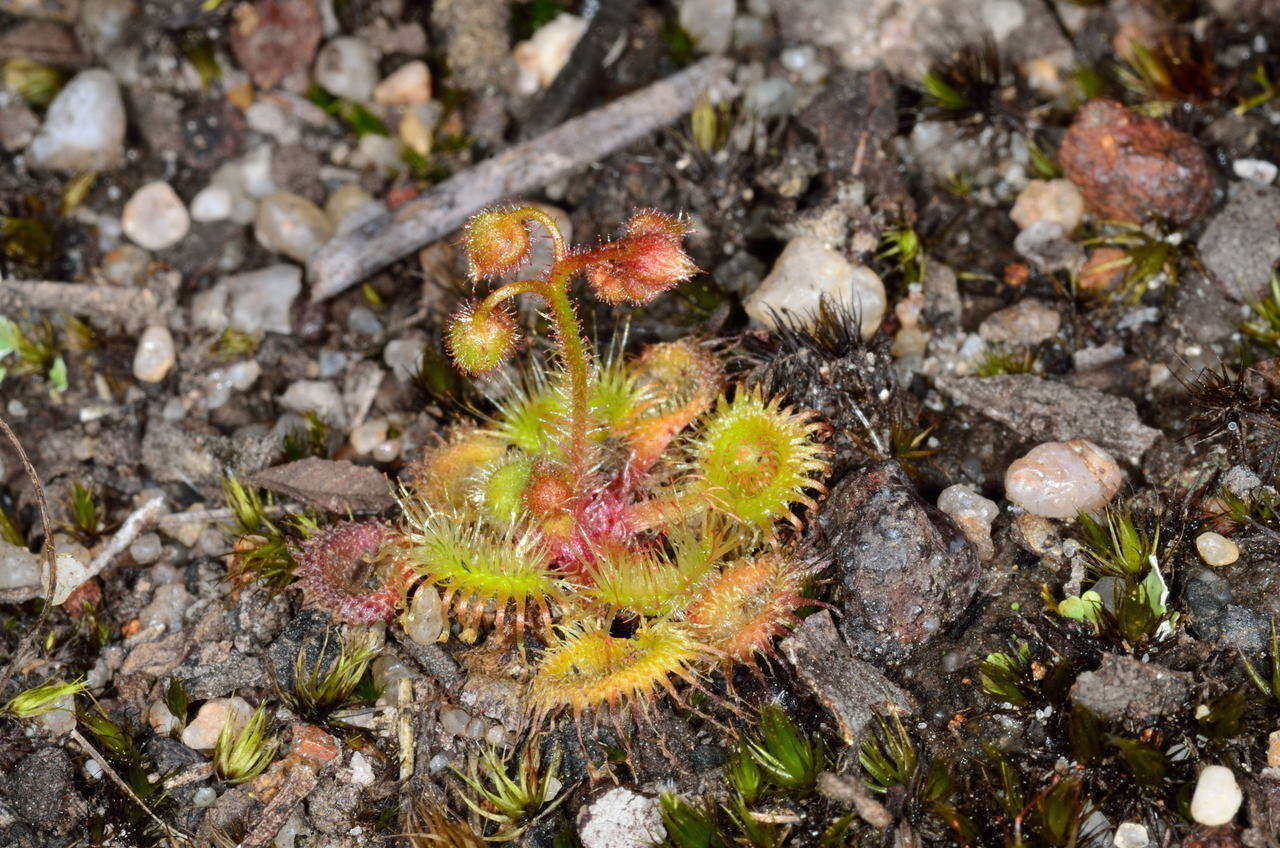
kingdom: Plantae
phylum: Tracheophyta
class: Magnoliopsida
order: Caryophyllales
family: Droseraceae
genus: Drosera
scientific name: Drosera glanduligera
